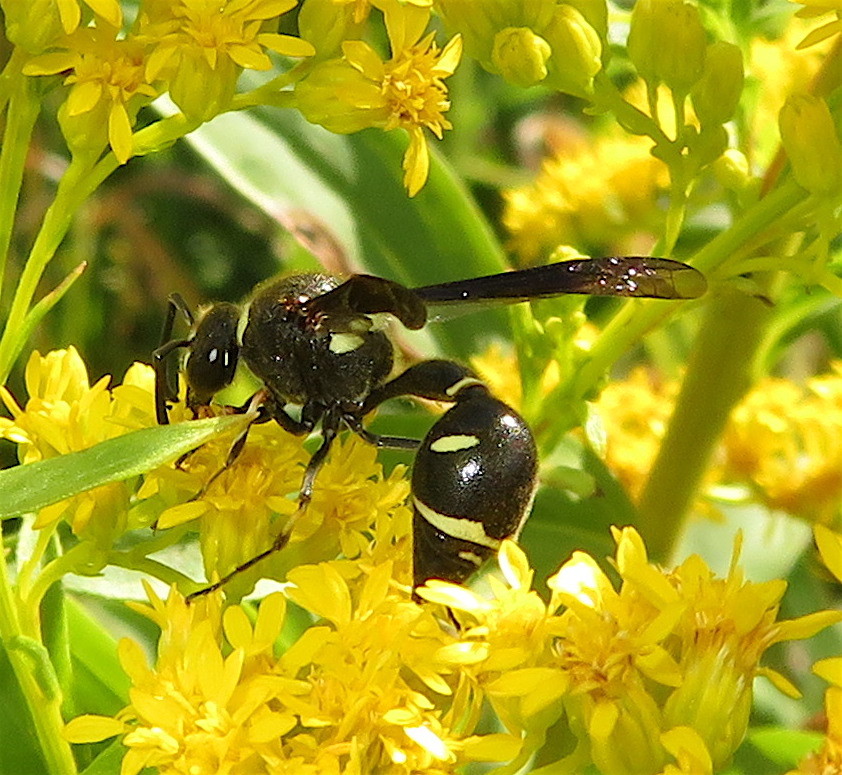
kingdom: Animalia
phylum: Arthropoda
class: Insecta
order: Hymenoptera
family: Vespidae
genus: Eumenes
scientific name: Eumenes fraternus
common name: Fraternal potter wasp
